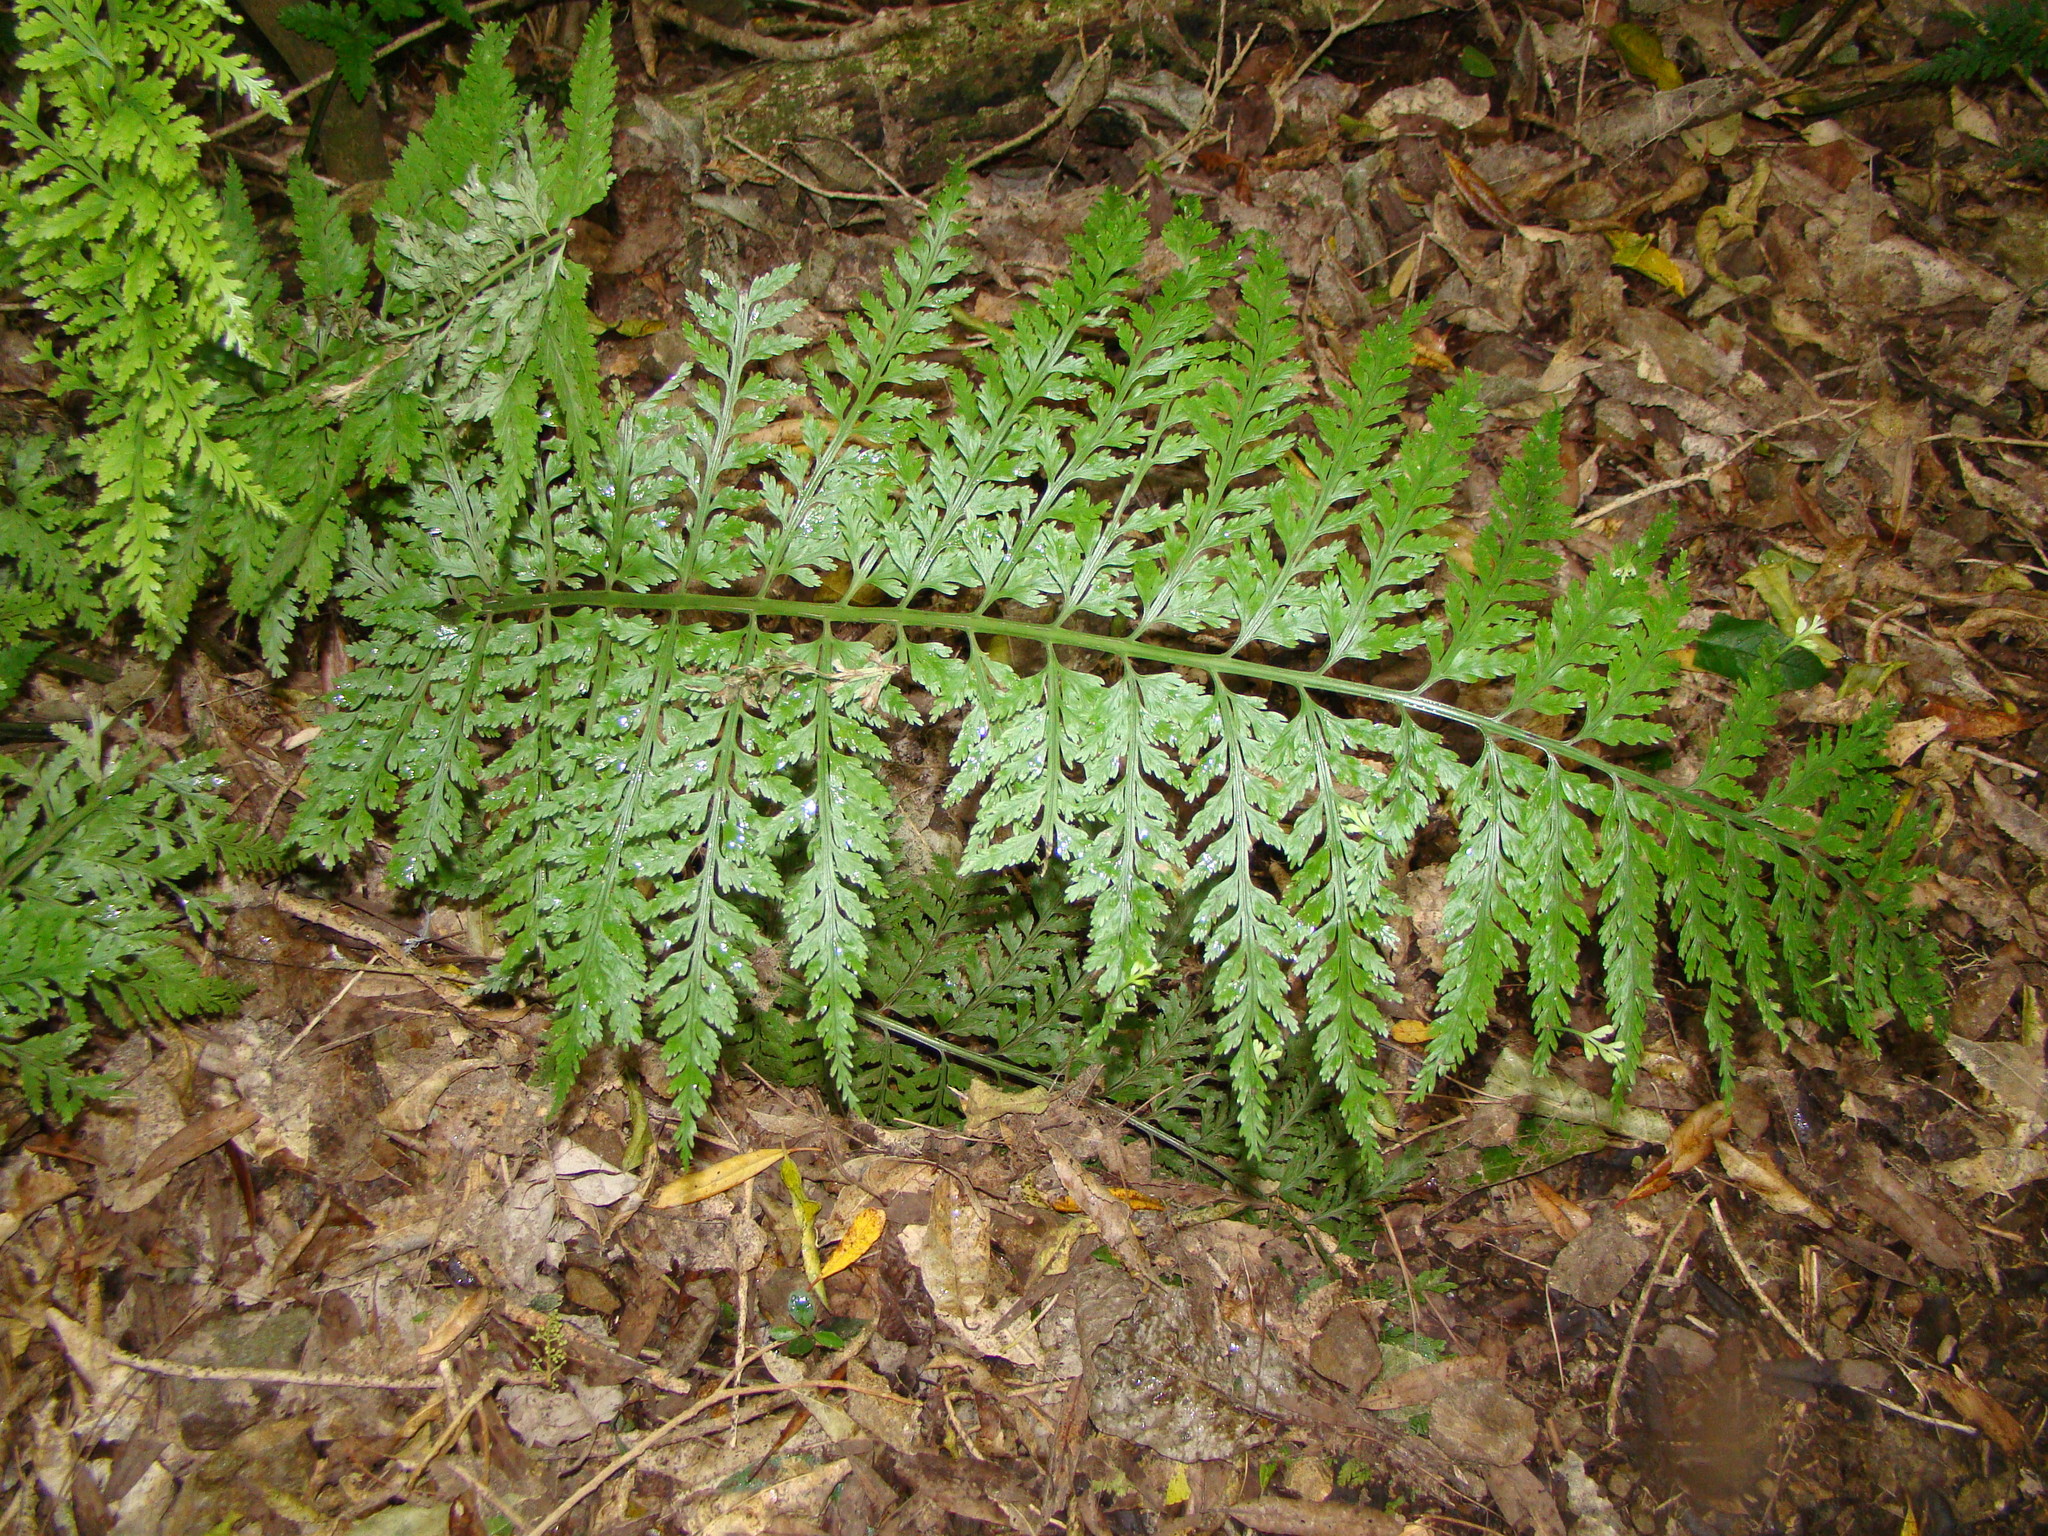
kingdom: Plantae
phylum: Tracheophyta
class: Polypodiopsida
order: Polypodiales
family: Aspleniaceae
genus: Asplenium
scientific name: Asplenium bulbiferum
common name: Mother fern
